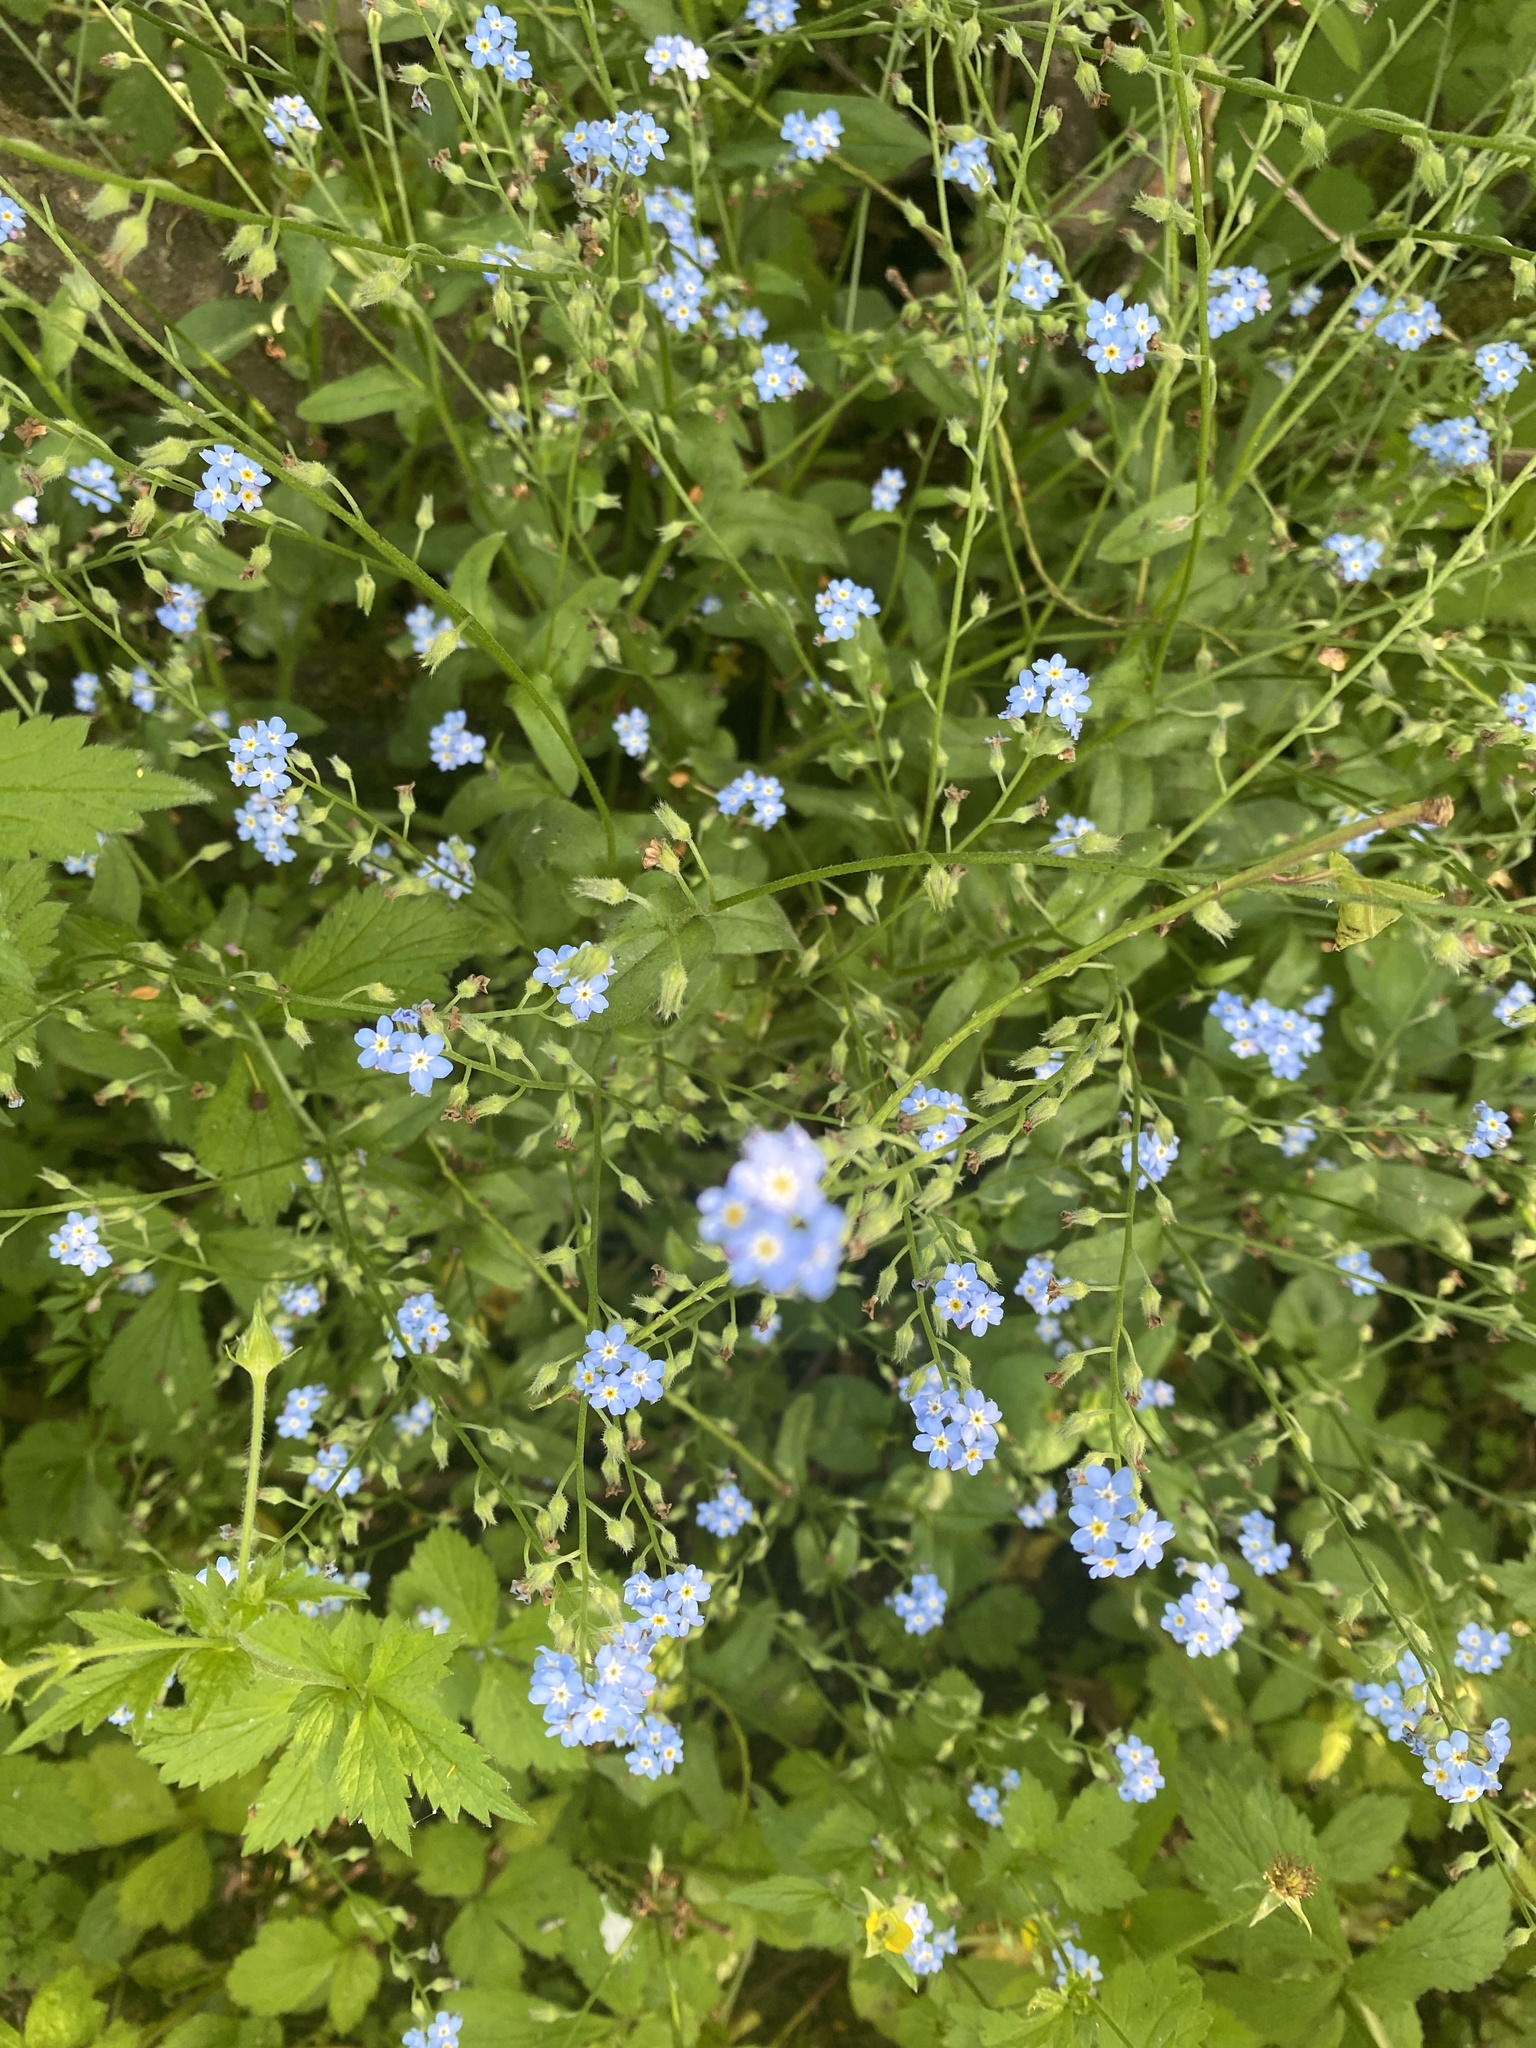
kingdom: Plantae
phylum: Tracheophyta
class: Magnoliopsida
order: Boraginales
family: Boraginaceae
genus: Myosotis
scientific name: Myosotis arvensis
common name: Field forget-me-not
